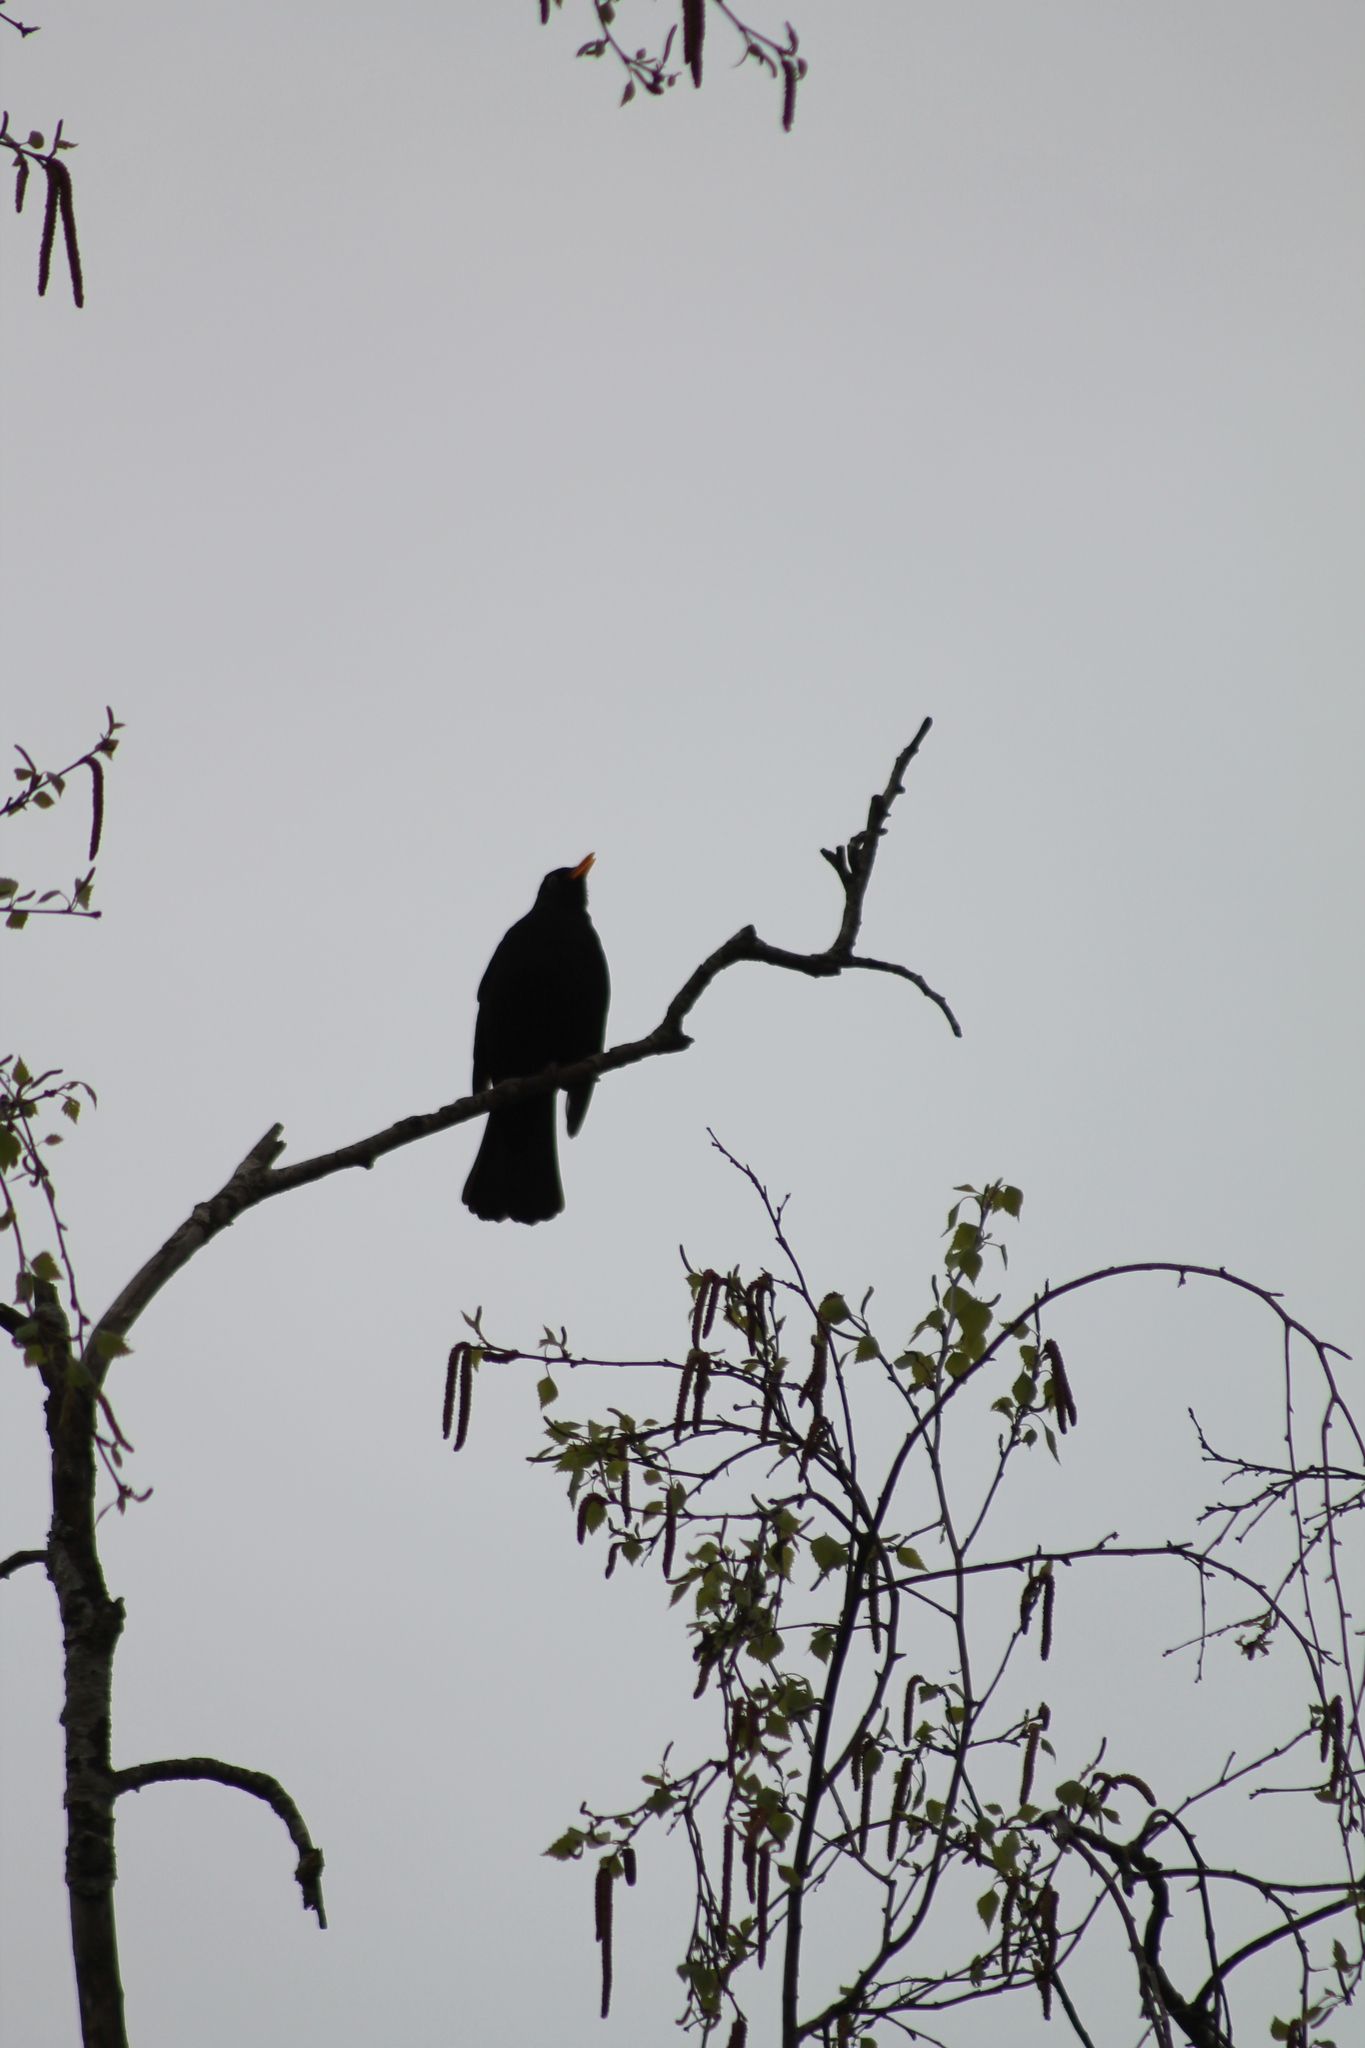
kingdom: Animalia
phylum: Chordata
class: Aves
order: Passeriformes
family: Turdidae
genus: Turdus
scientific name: Turdus merula
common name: Common blackbird
